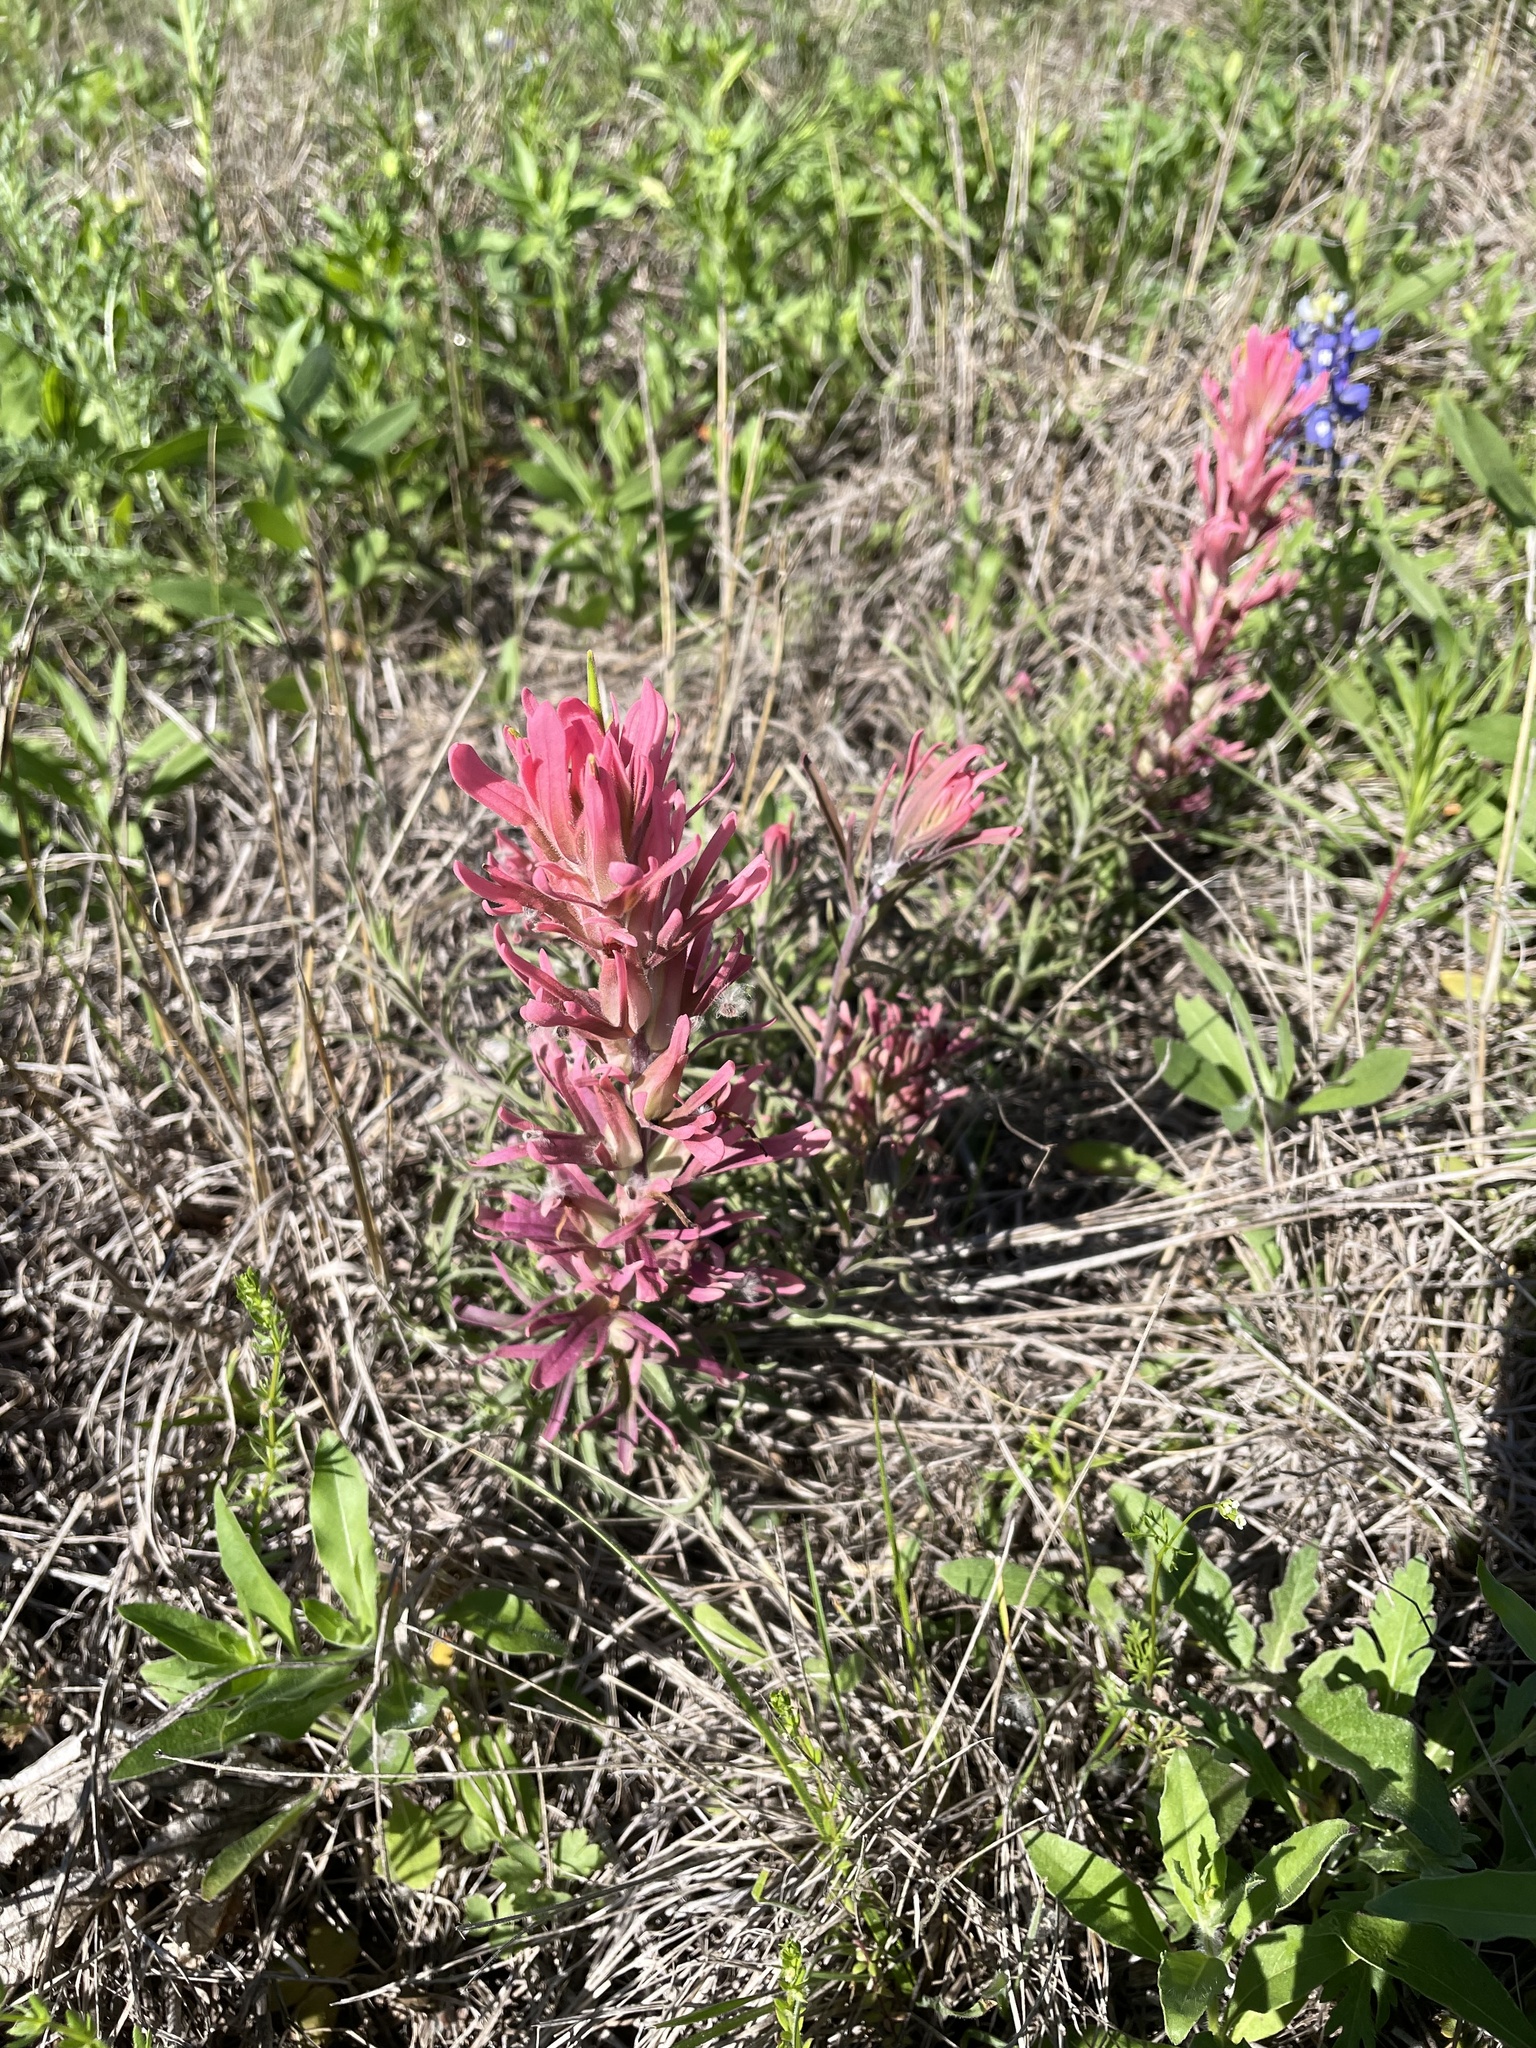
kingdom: Plantae
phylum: Tracheophyta
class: Magnoliopsida
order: Lamiales
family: Orobanchaceae
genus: Castilleja
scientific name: Castilleja purpurea
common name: Plains paintbrush
